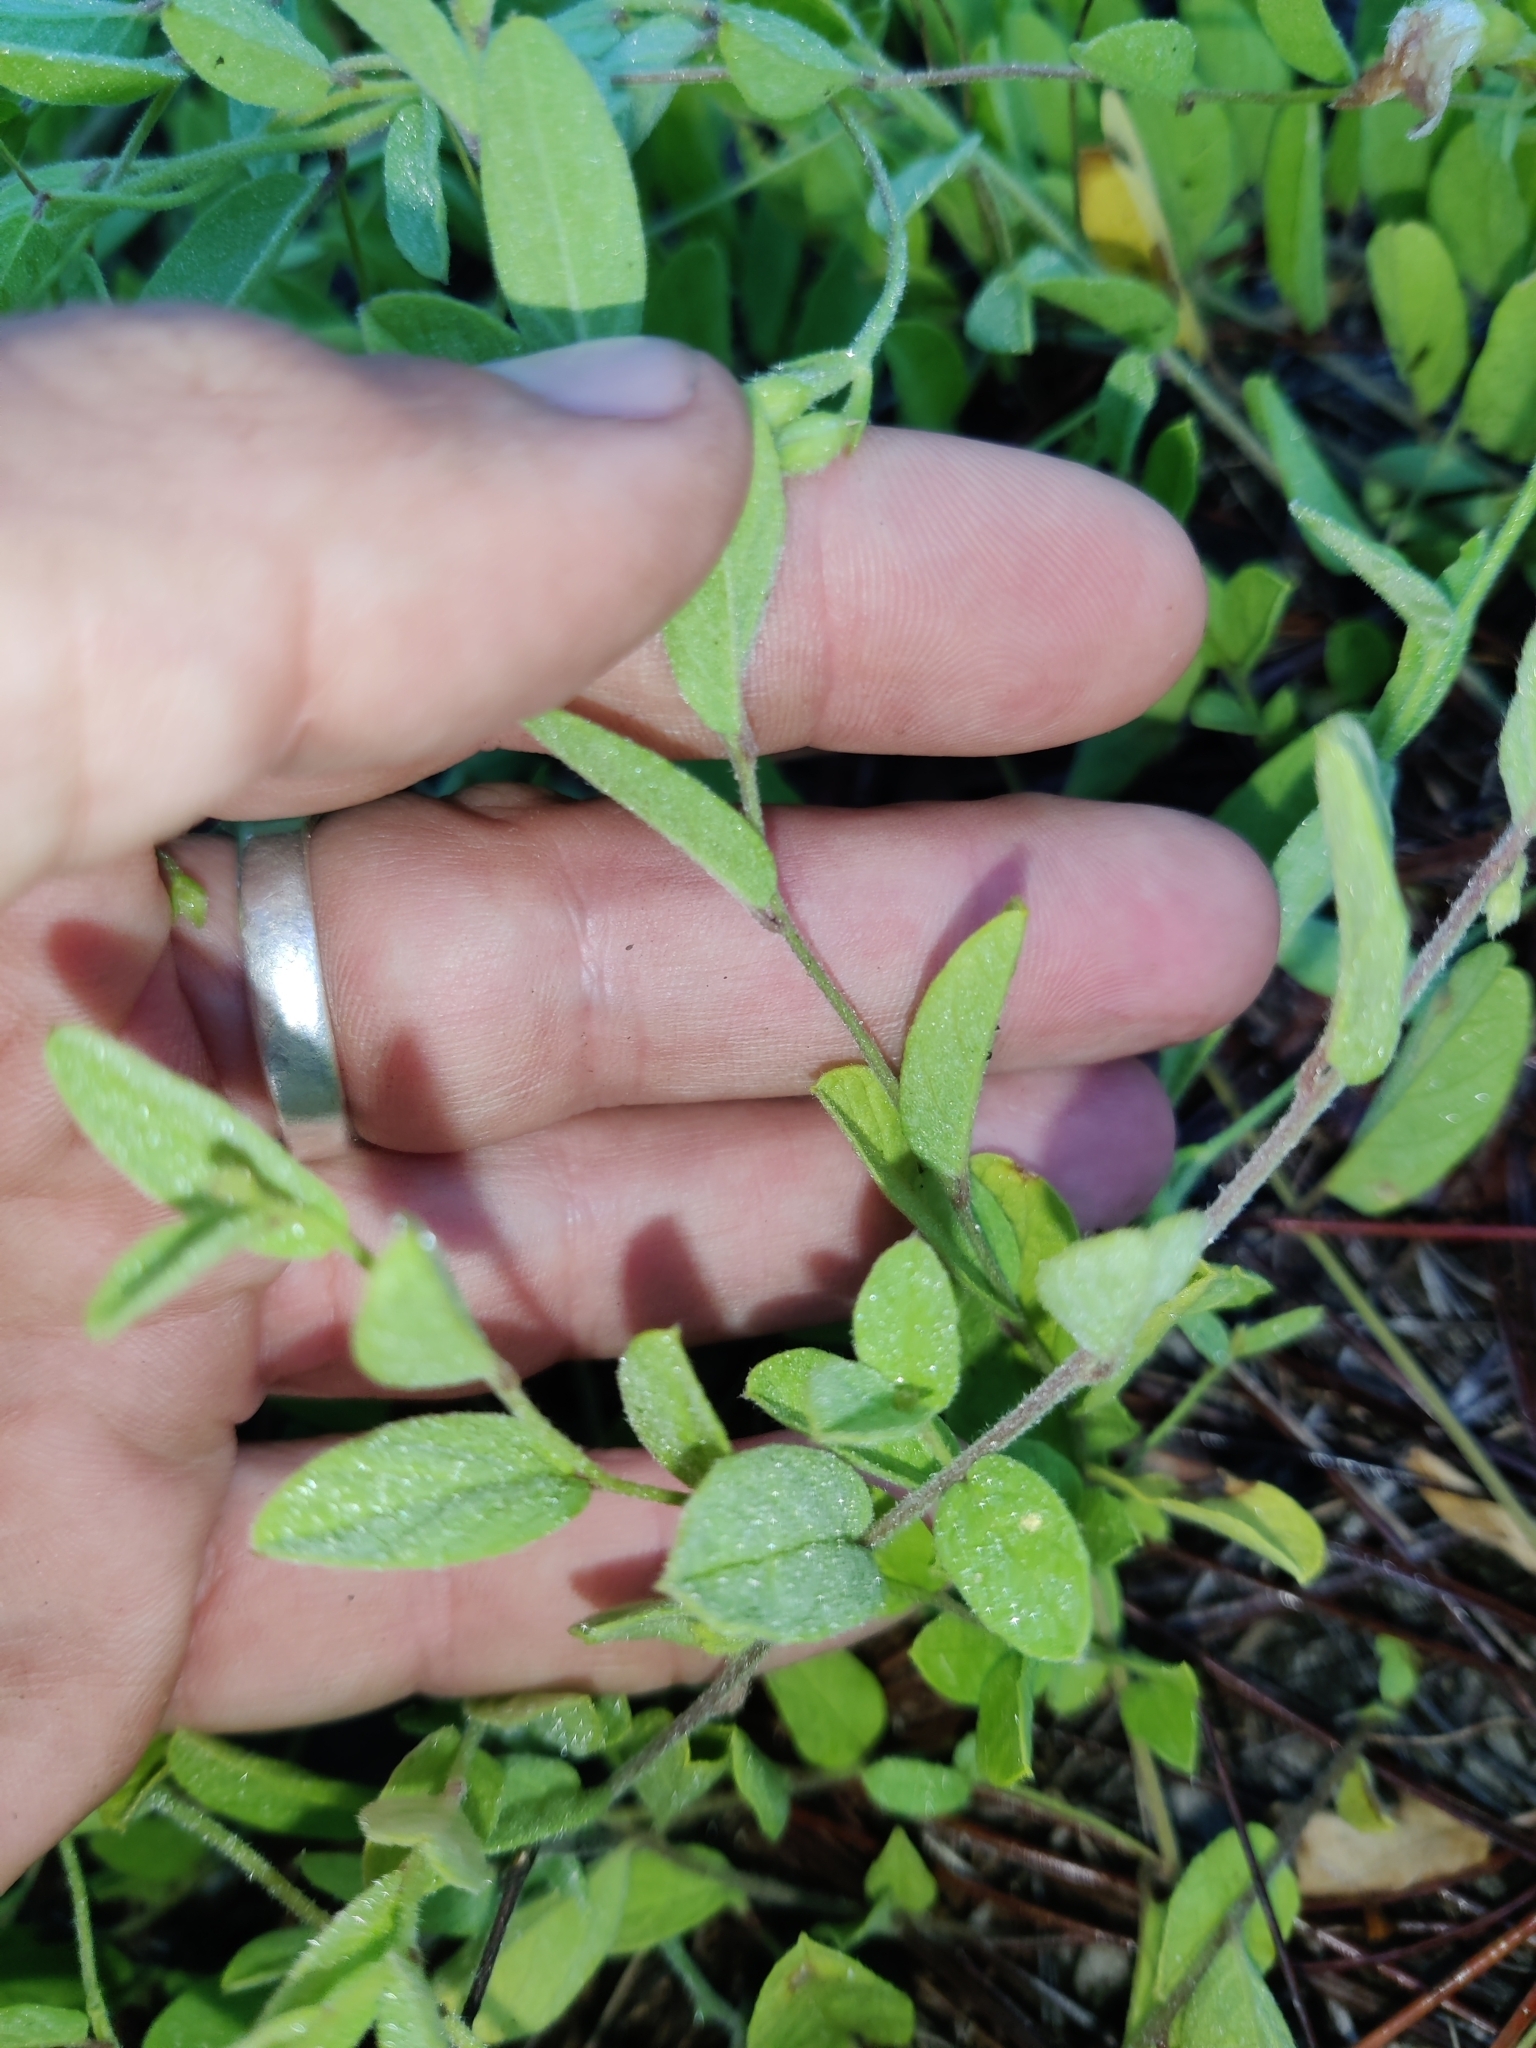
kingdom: Plantae
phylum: Tracheophyta
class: Magnoliopsida
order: Solanales
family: Convolvulaceae
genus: Stylisma
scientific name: Stylisma villosa
